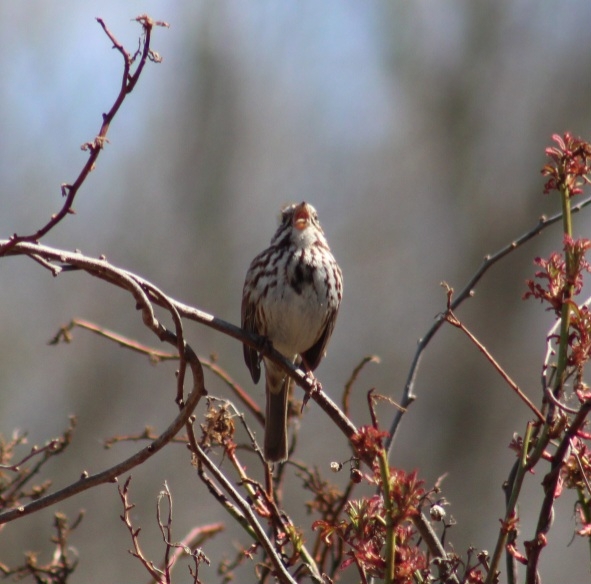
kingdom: Animalia
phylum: Chordata
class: Aves
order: Passeriformes
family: Passerellidae
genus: Melospiza
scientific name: Melospiza melodia
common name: Song sparrow
